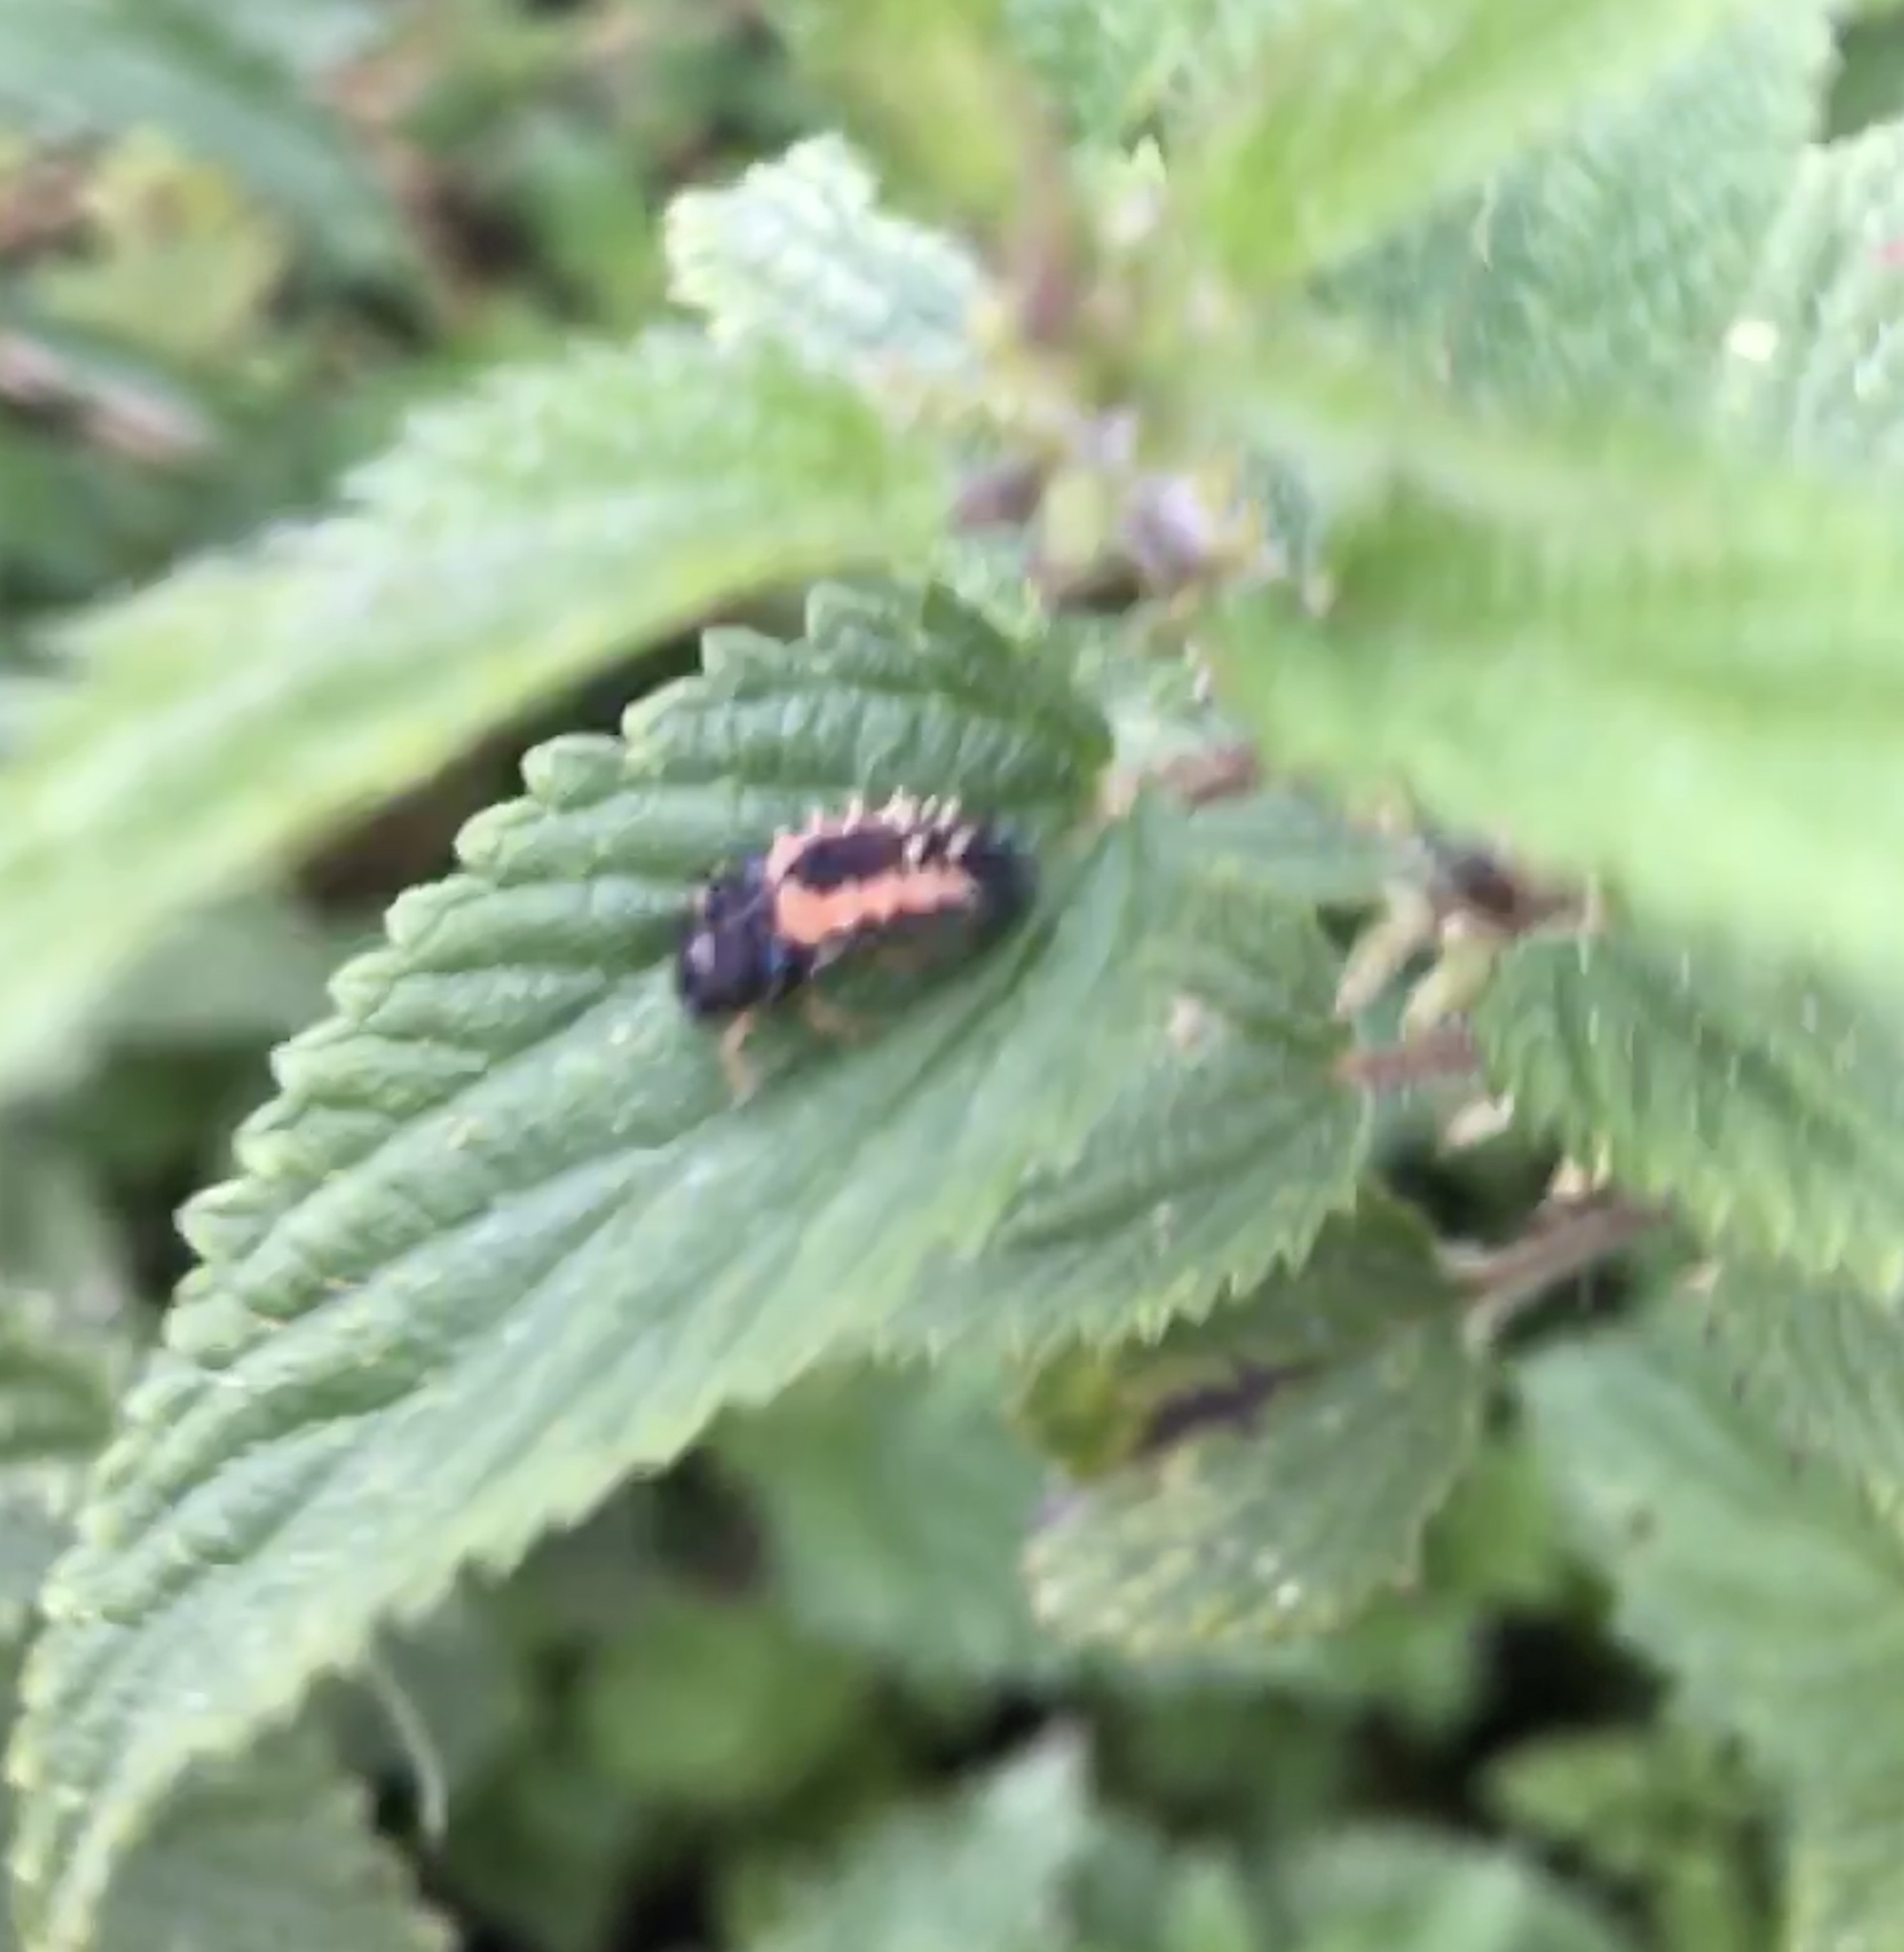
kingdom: Animalia
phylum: Arthropoda
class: Insecta
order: Coleoptera
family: Coccinellidae
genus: Harmonia
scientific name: Harmonia axyridis
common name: Harlequin ladybird
